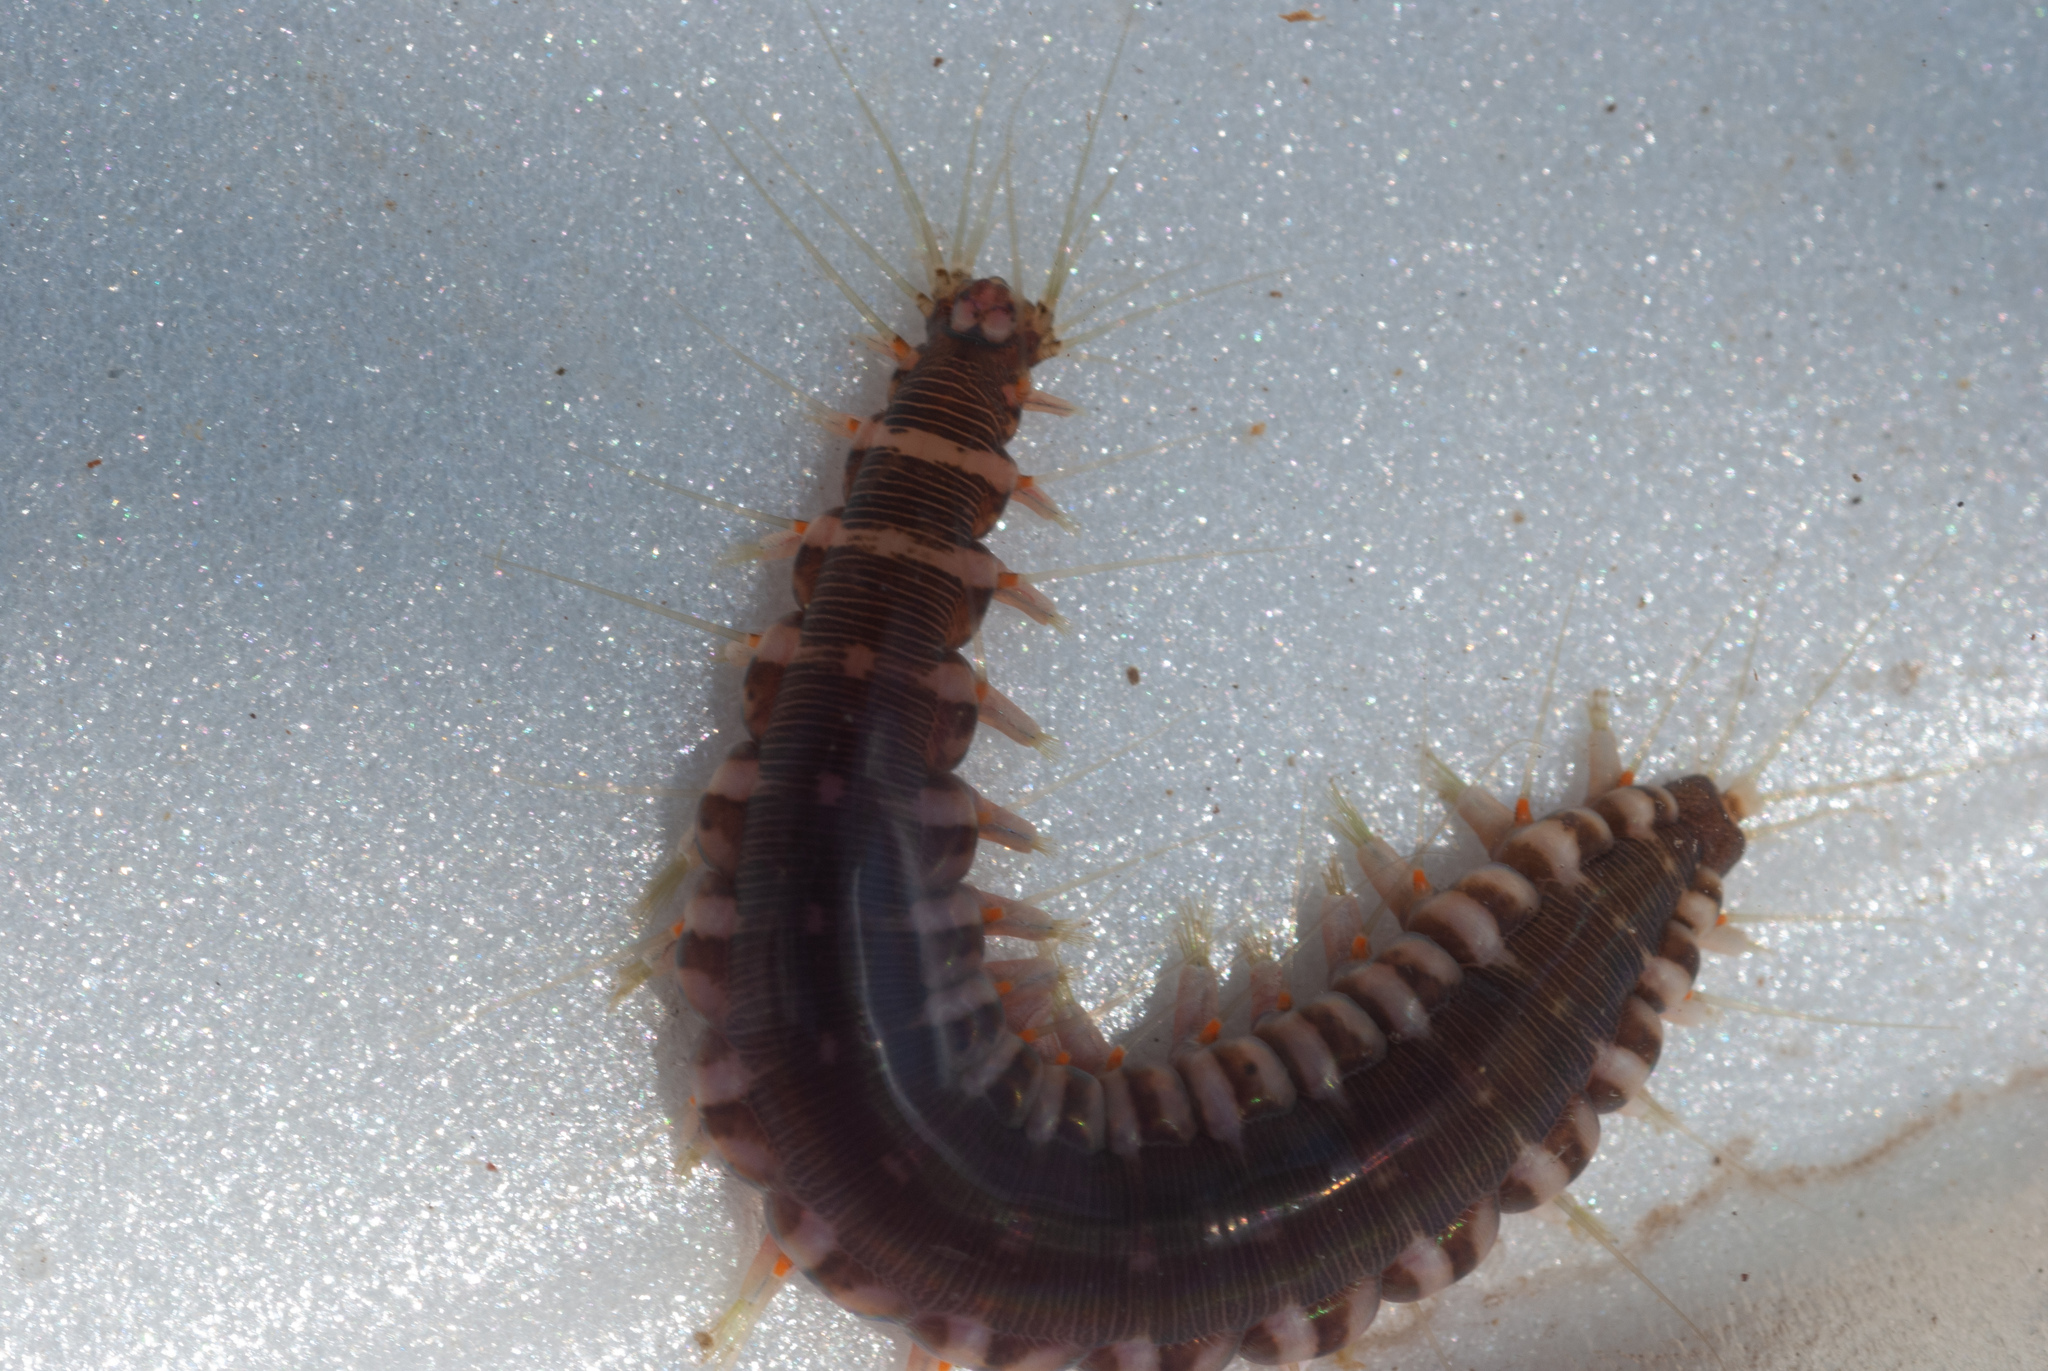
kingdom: Animalia
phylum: Annelida
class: Polychaeta
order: Phyllodocida
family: Hesionidae
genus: Hesione
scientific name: Hesione picta
